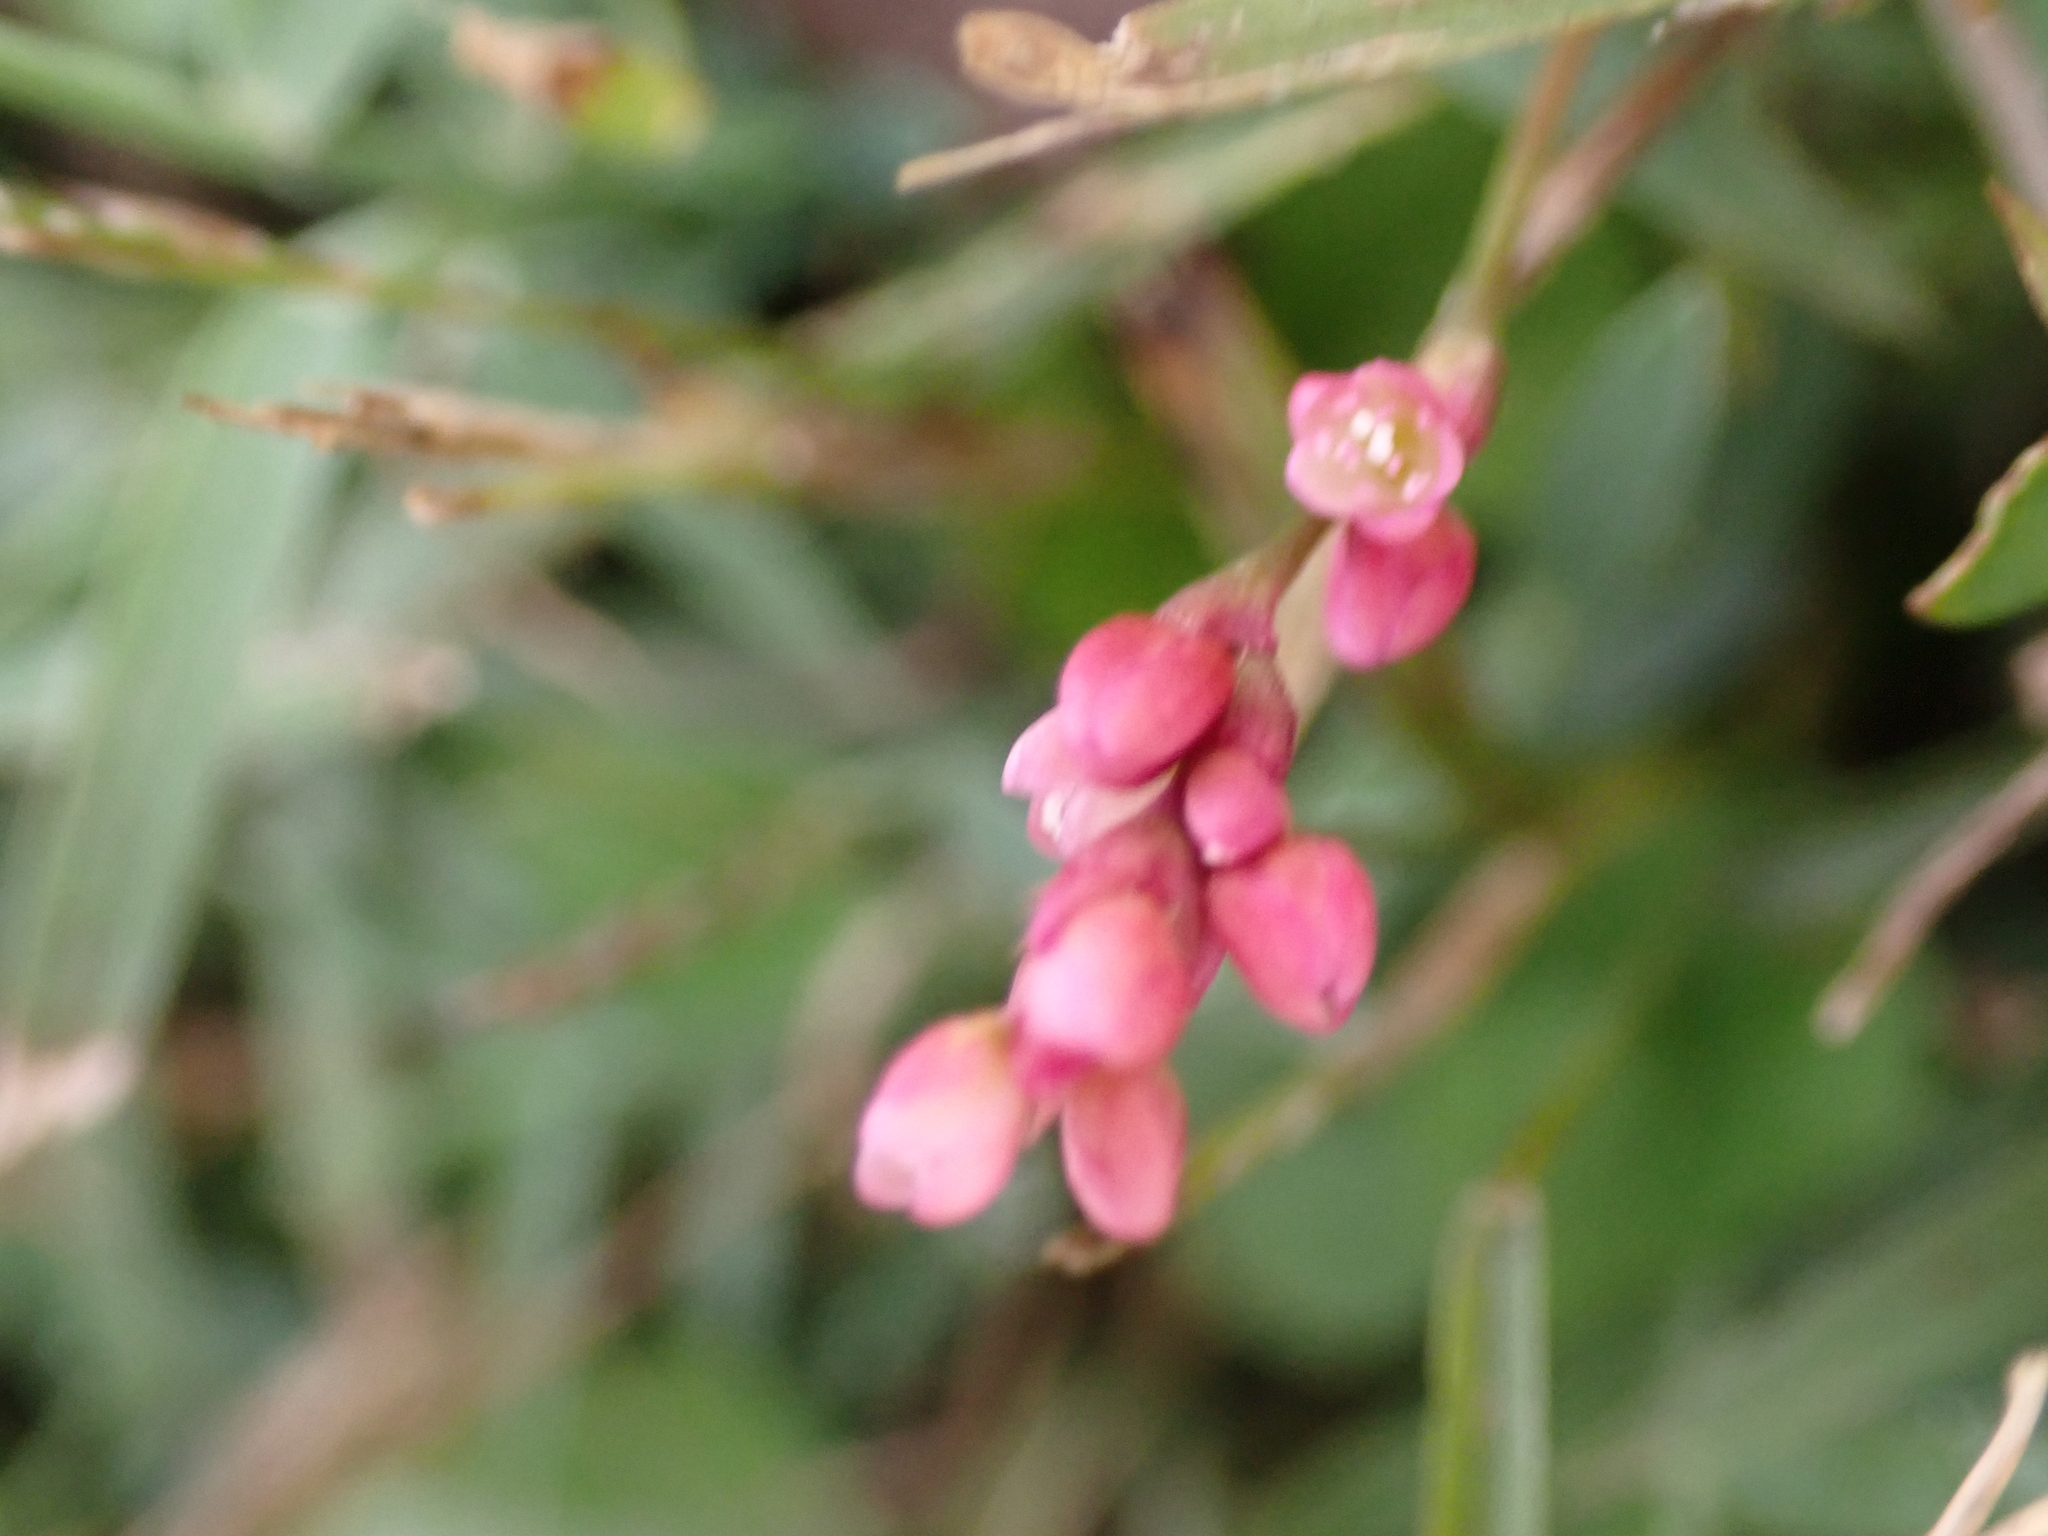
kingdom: Plantae
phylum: Tracheophyta
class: Magnoliopsida
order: Caryophyllales
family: Polygonaceae
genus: Persicaria
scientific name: Persicaria longiseta
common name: Bristly lady's-thumb
